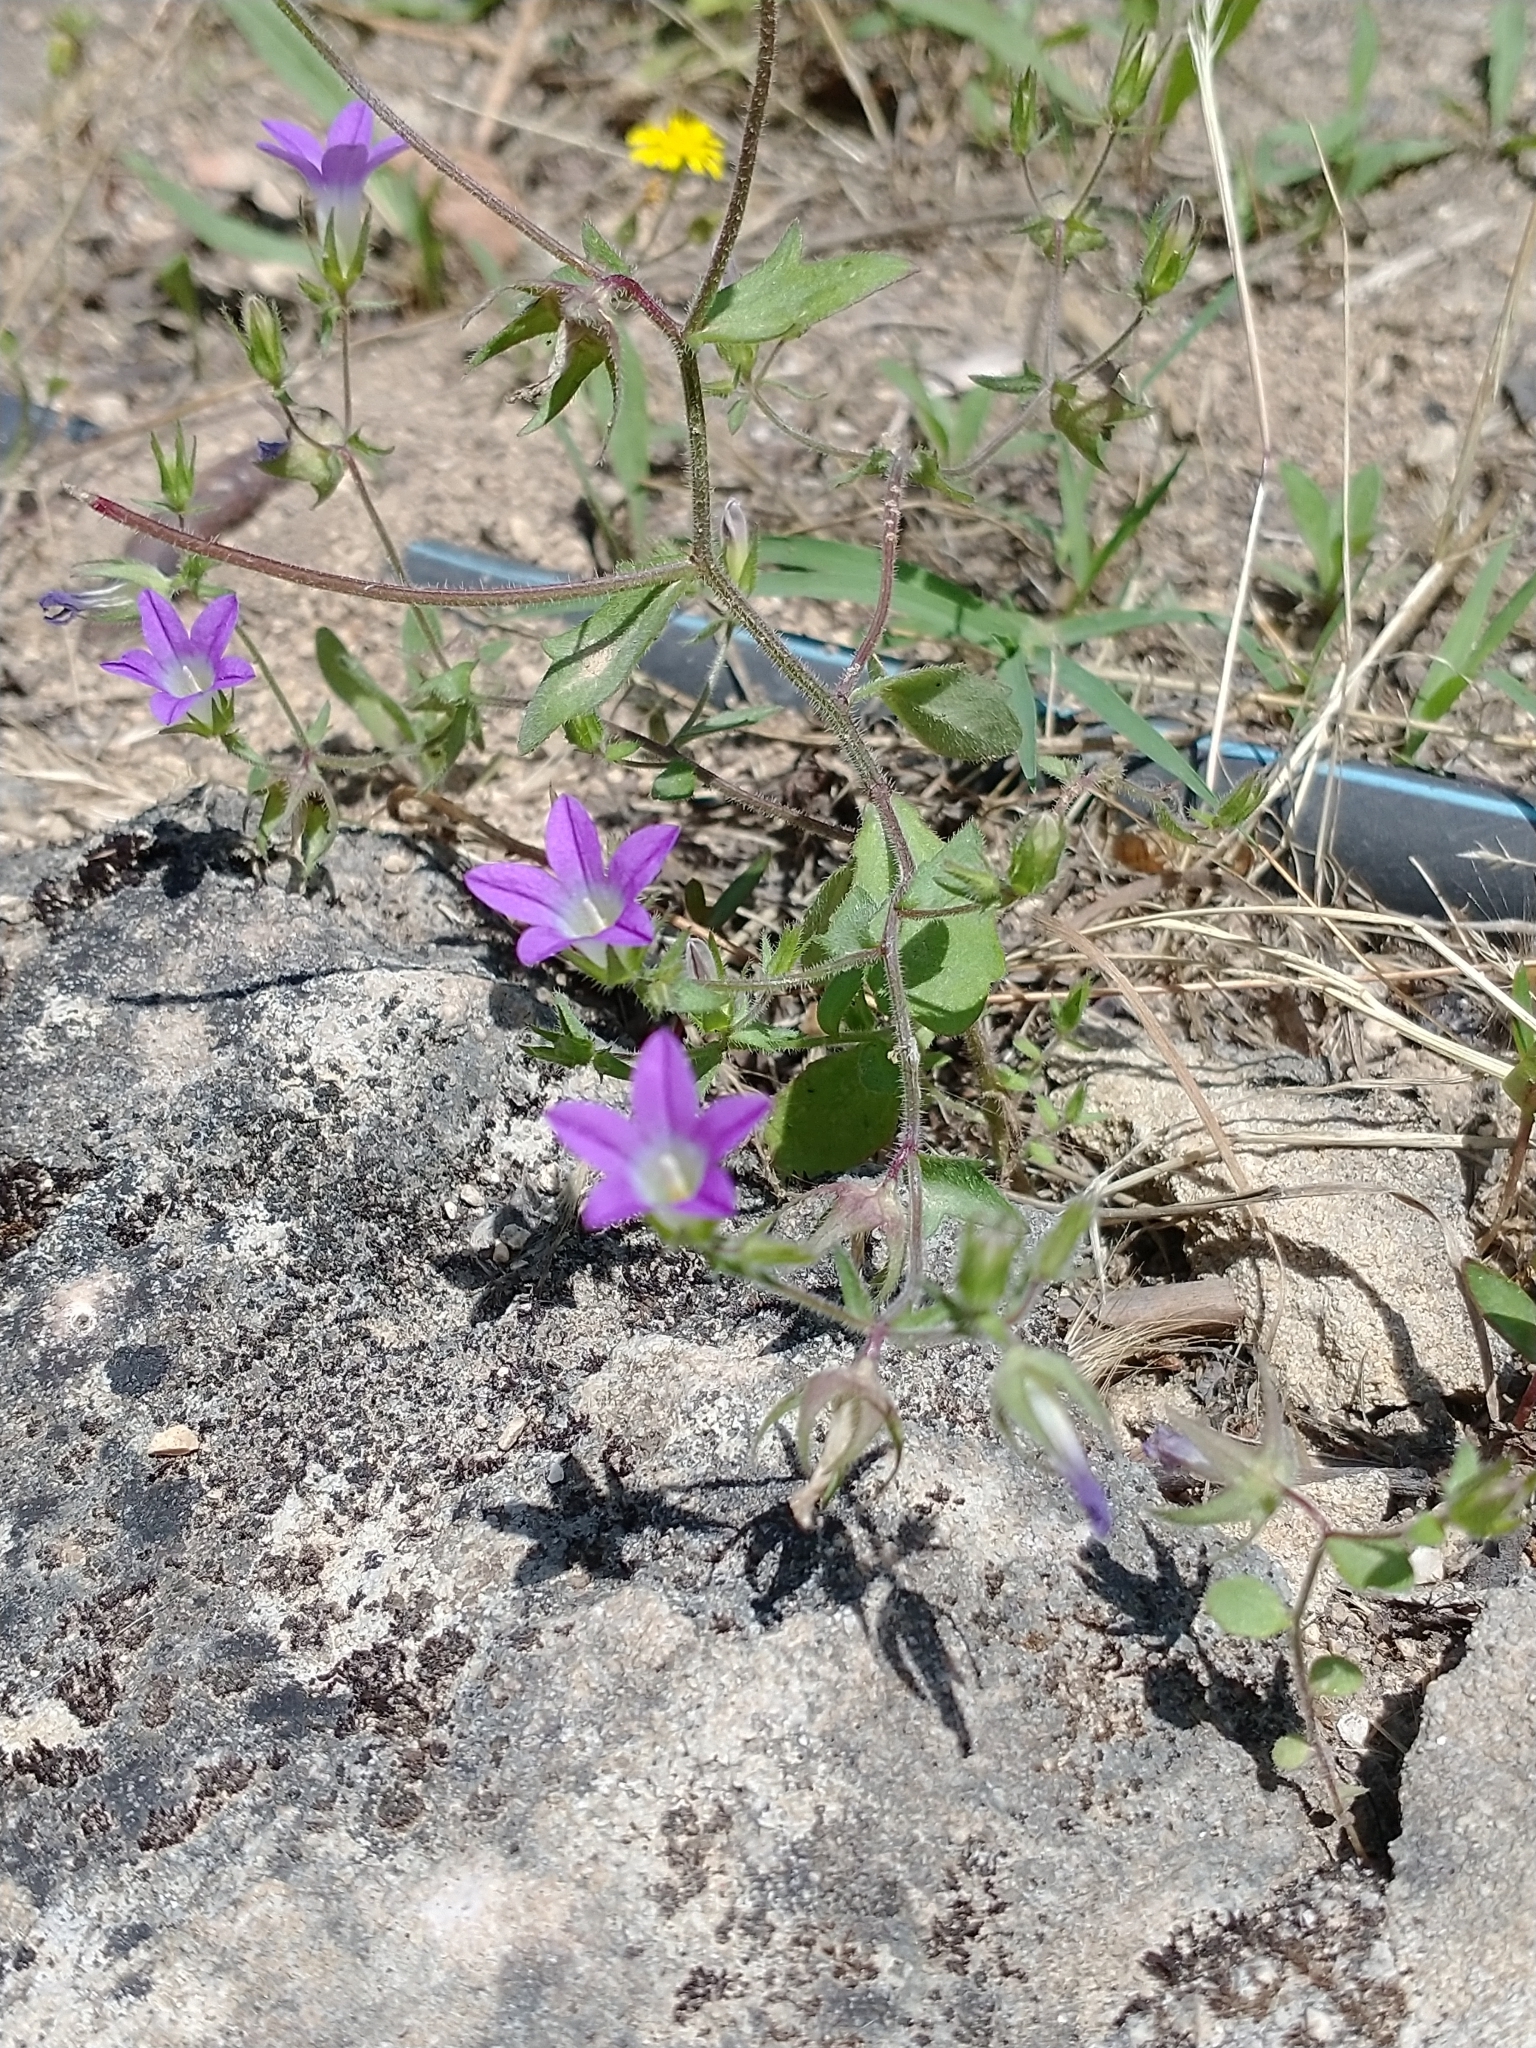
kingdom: Plantae
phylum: Tracheophyta
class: Magnoliopsida
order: Asterales
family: Campanulaceae
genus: Campanula
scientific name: Campanula ramosissima
